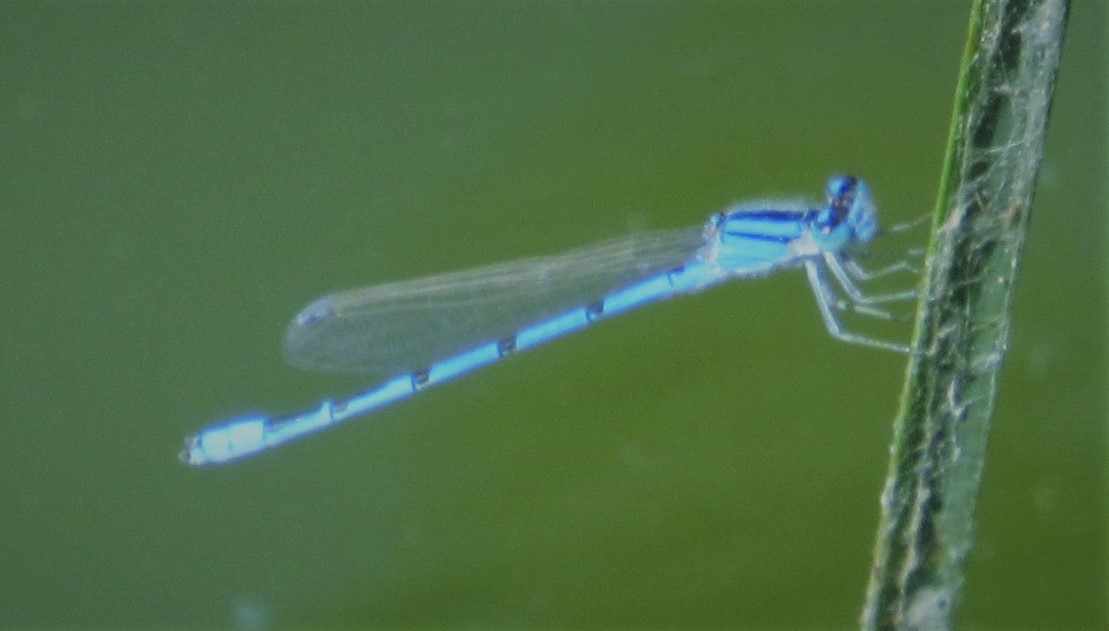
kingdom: Animalia
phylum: Arthropoda
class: Insecta
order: Odonata
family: Coenagrionidae
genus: Enallagma
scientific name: Enallagma civile
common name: Damselfly
